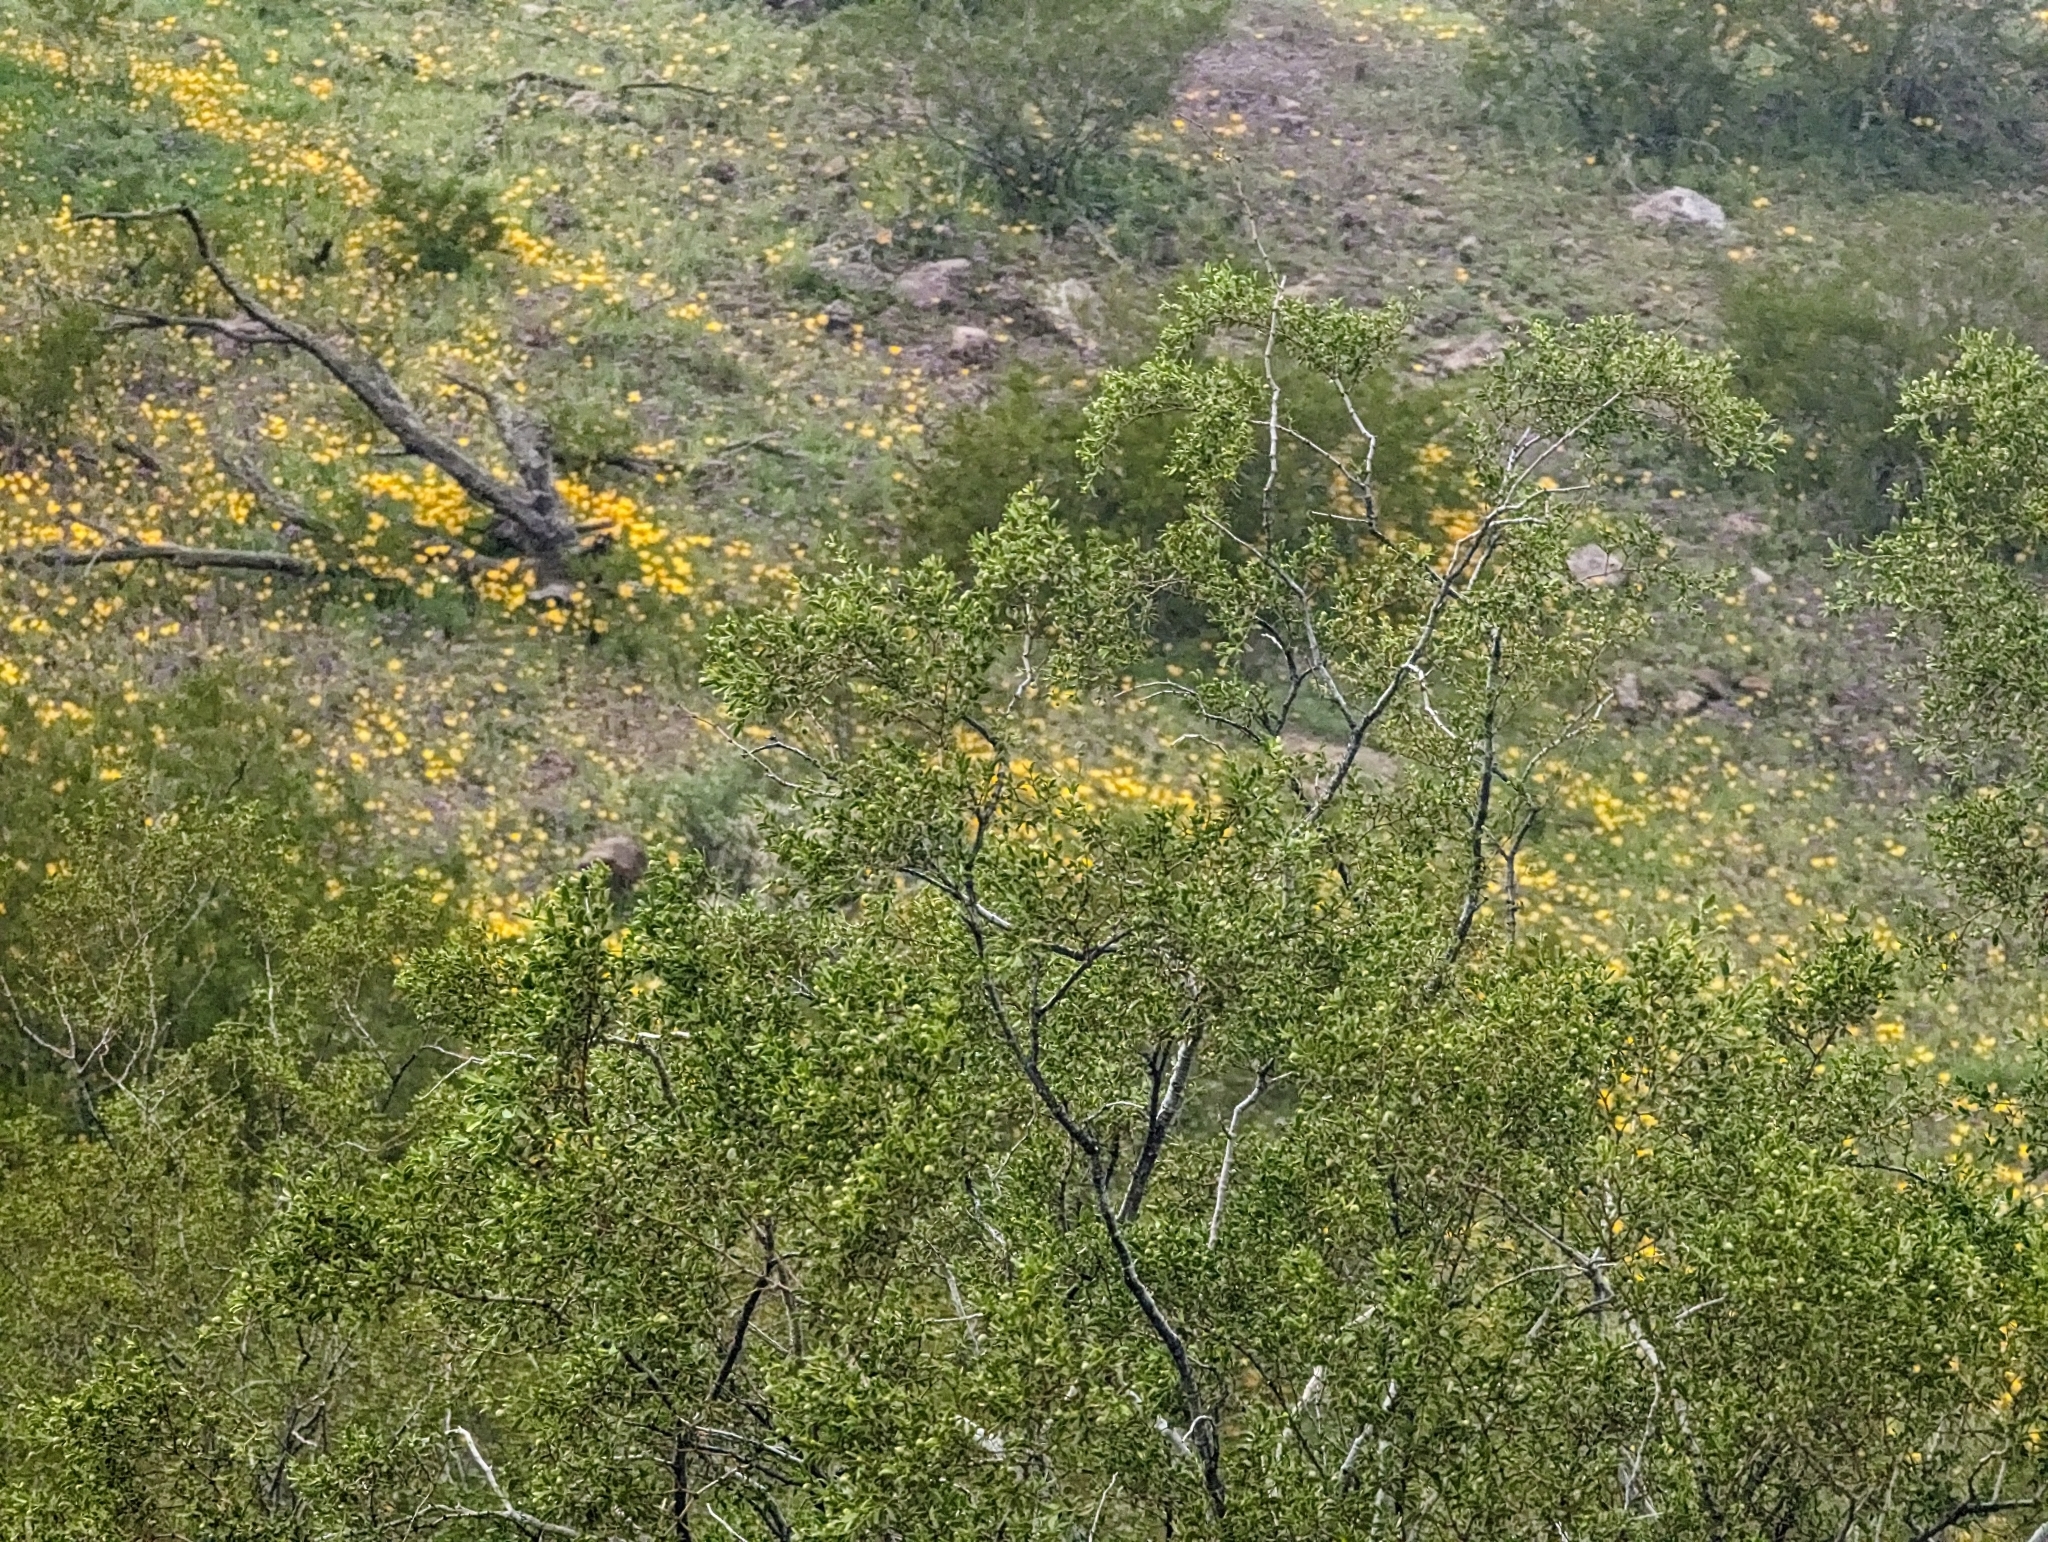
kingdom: Plantae
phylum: Tracheophyta
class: Magnoliopsida
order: Zygophyllales
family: Zygophyllaceae
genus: Larrea
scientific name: Larrea tridentata
